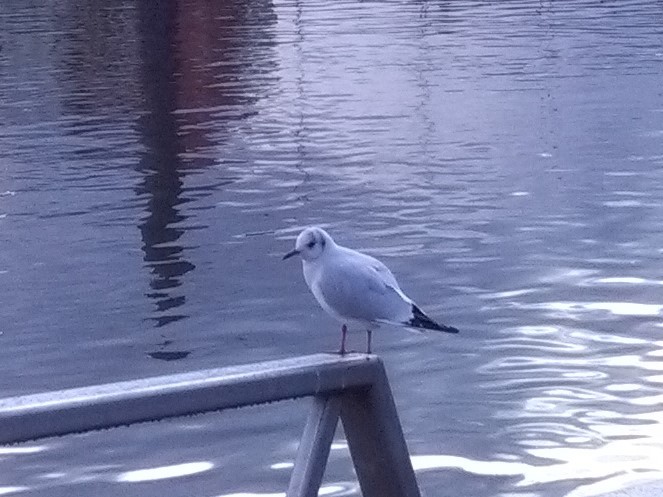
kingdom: Animalia
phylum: Chordata
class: Aves
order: Charadriiformes
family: Laridae
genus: Chroicocephalus
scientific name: Chroicocephalus ridibundus
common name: Black-headed gull
